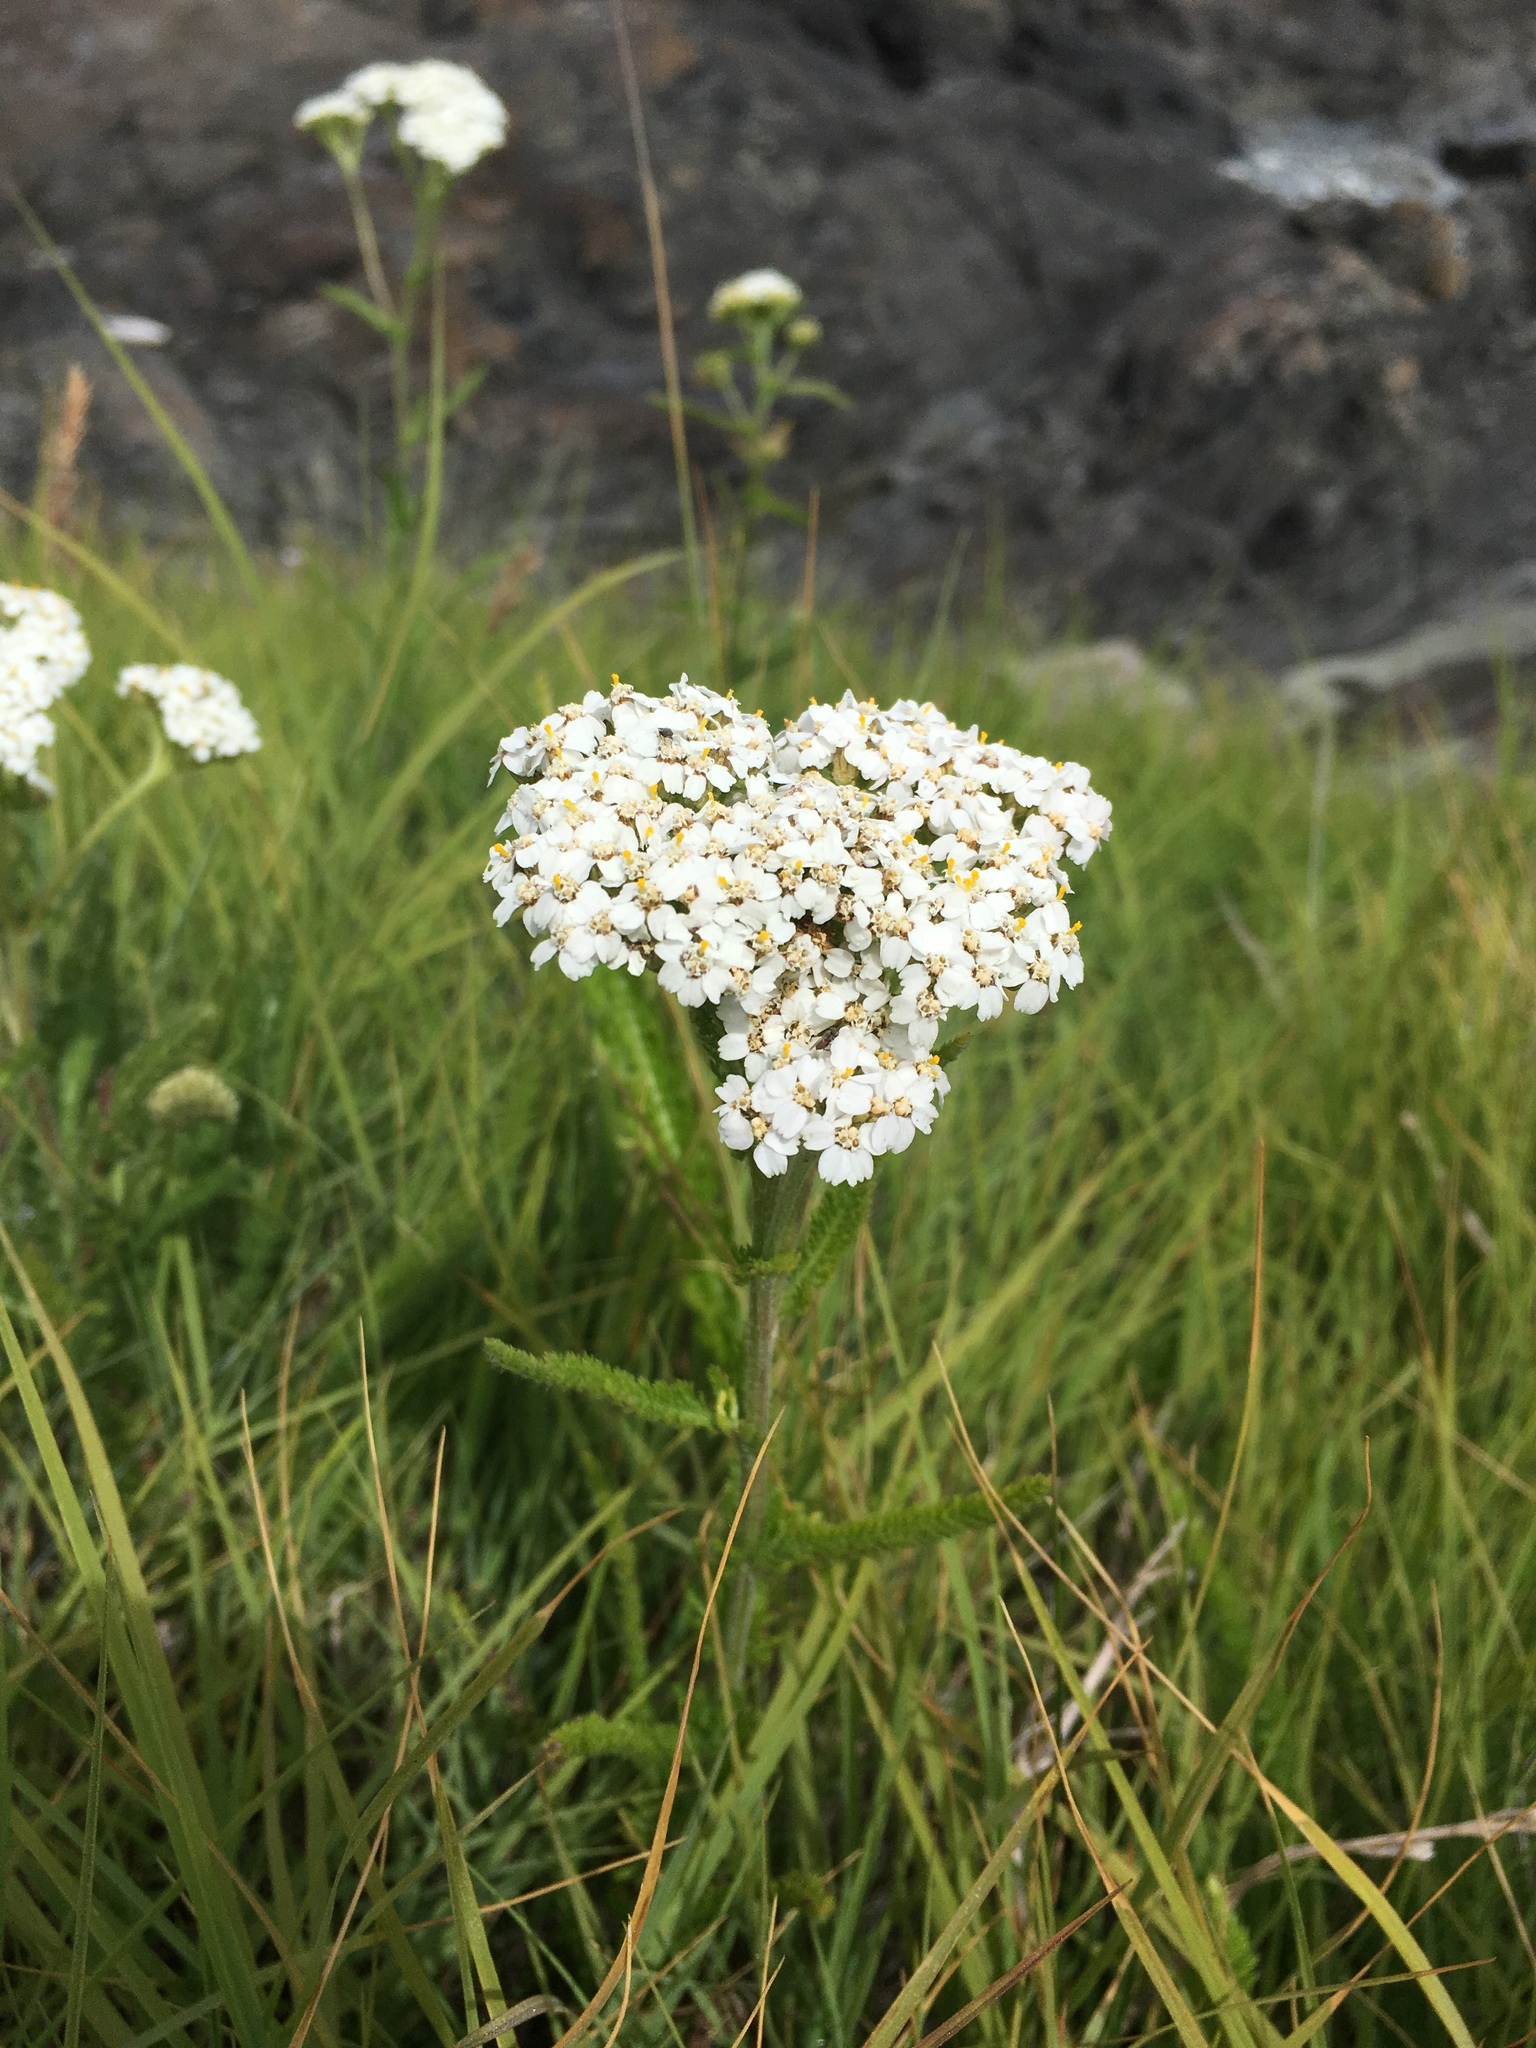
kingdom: Plantae
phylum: Tracheophyta
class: Magnoliopsida
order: Asterales
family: Asteraceae
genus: Achillea
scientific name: Achillea millefolium
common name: Yarrow
